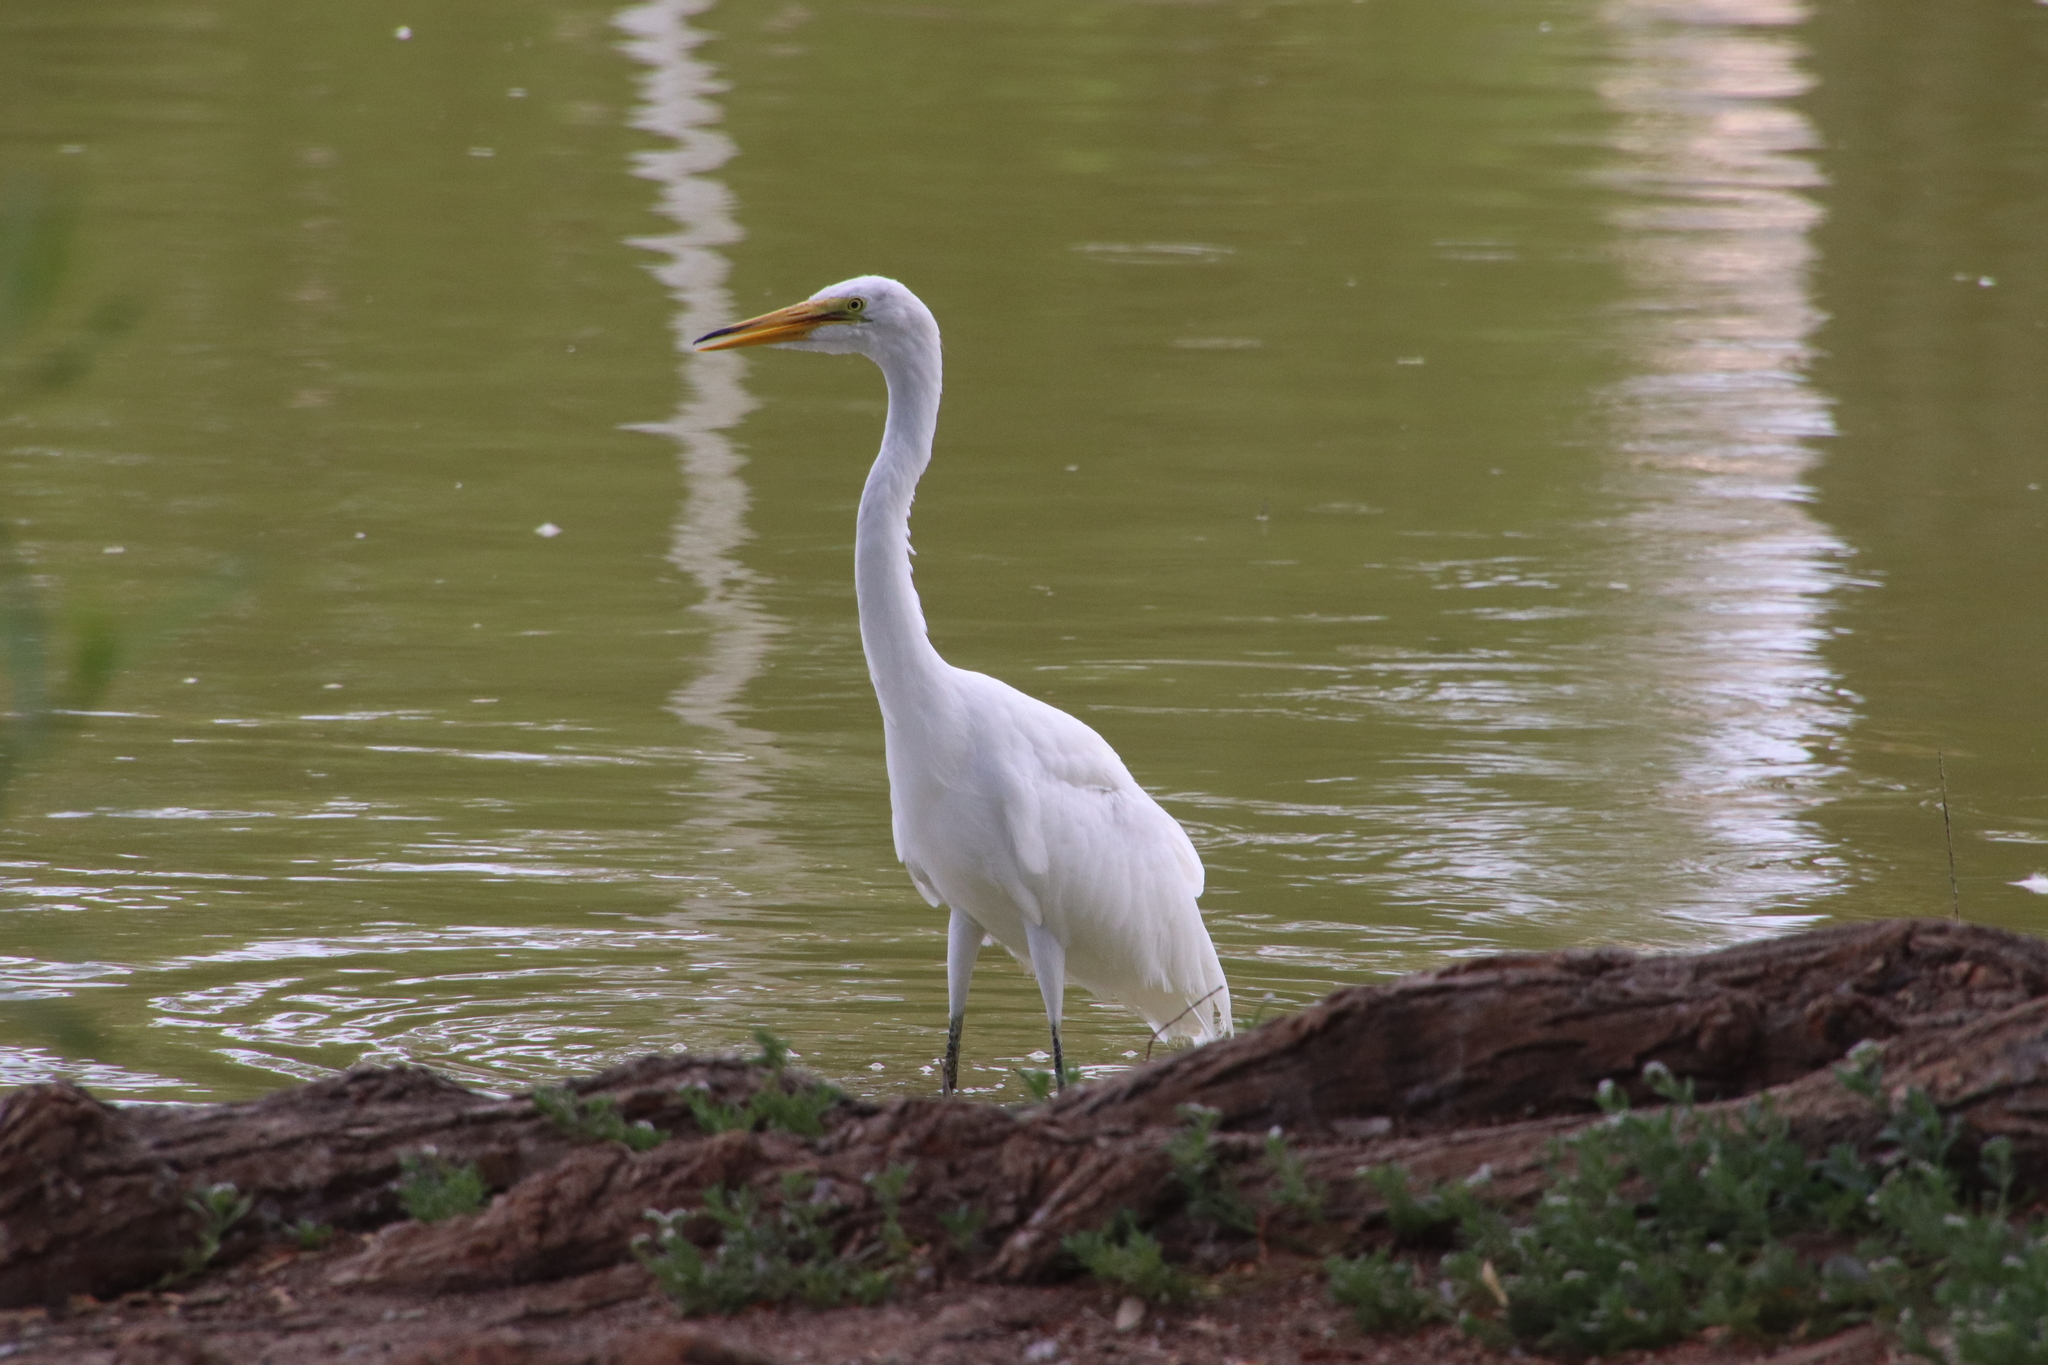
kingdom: Animalia
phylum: Chordata
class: Aves
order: Pelecaniformes
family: Ardeidae
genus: Ardea
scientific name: Ardea alba
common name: Great egret
